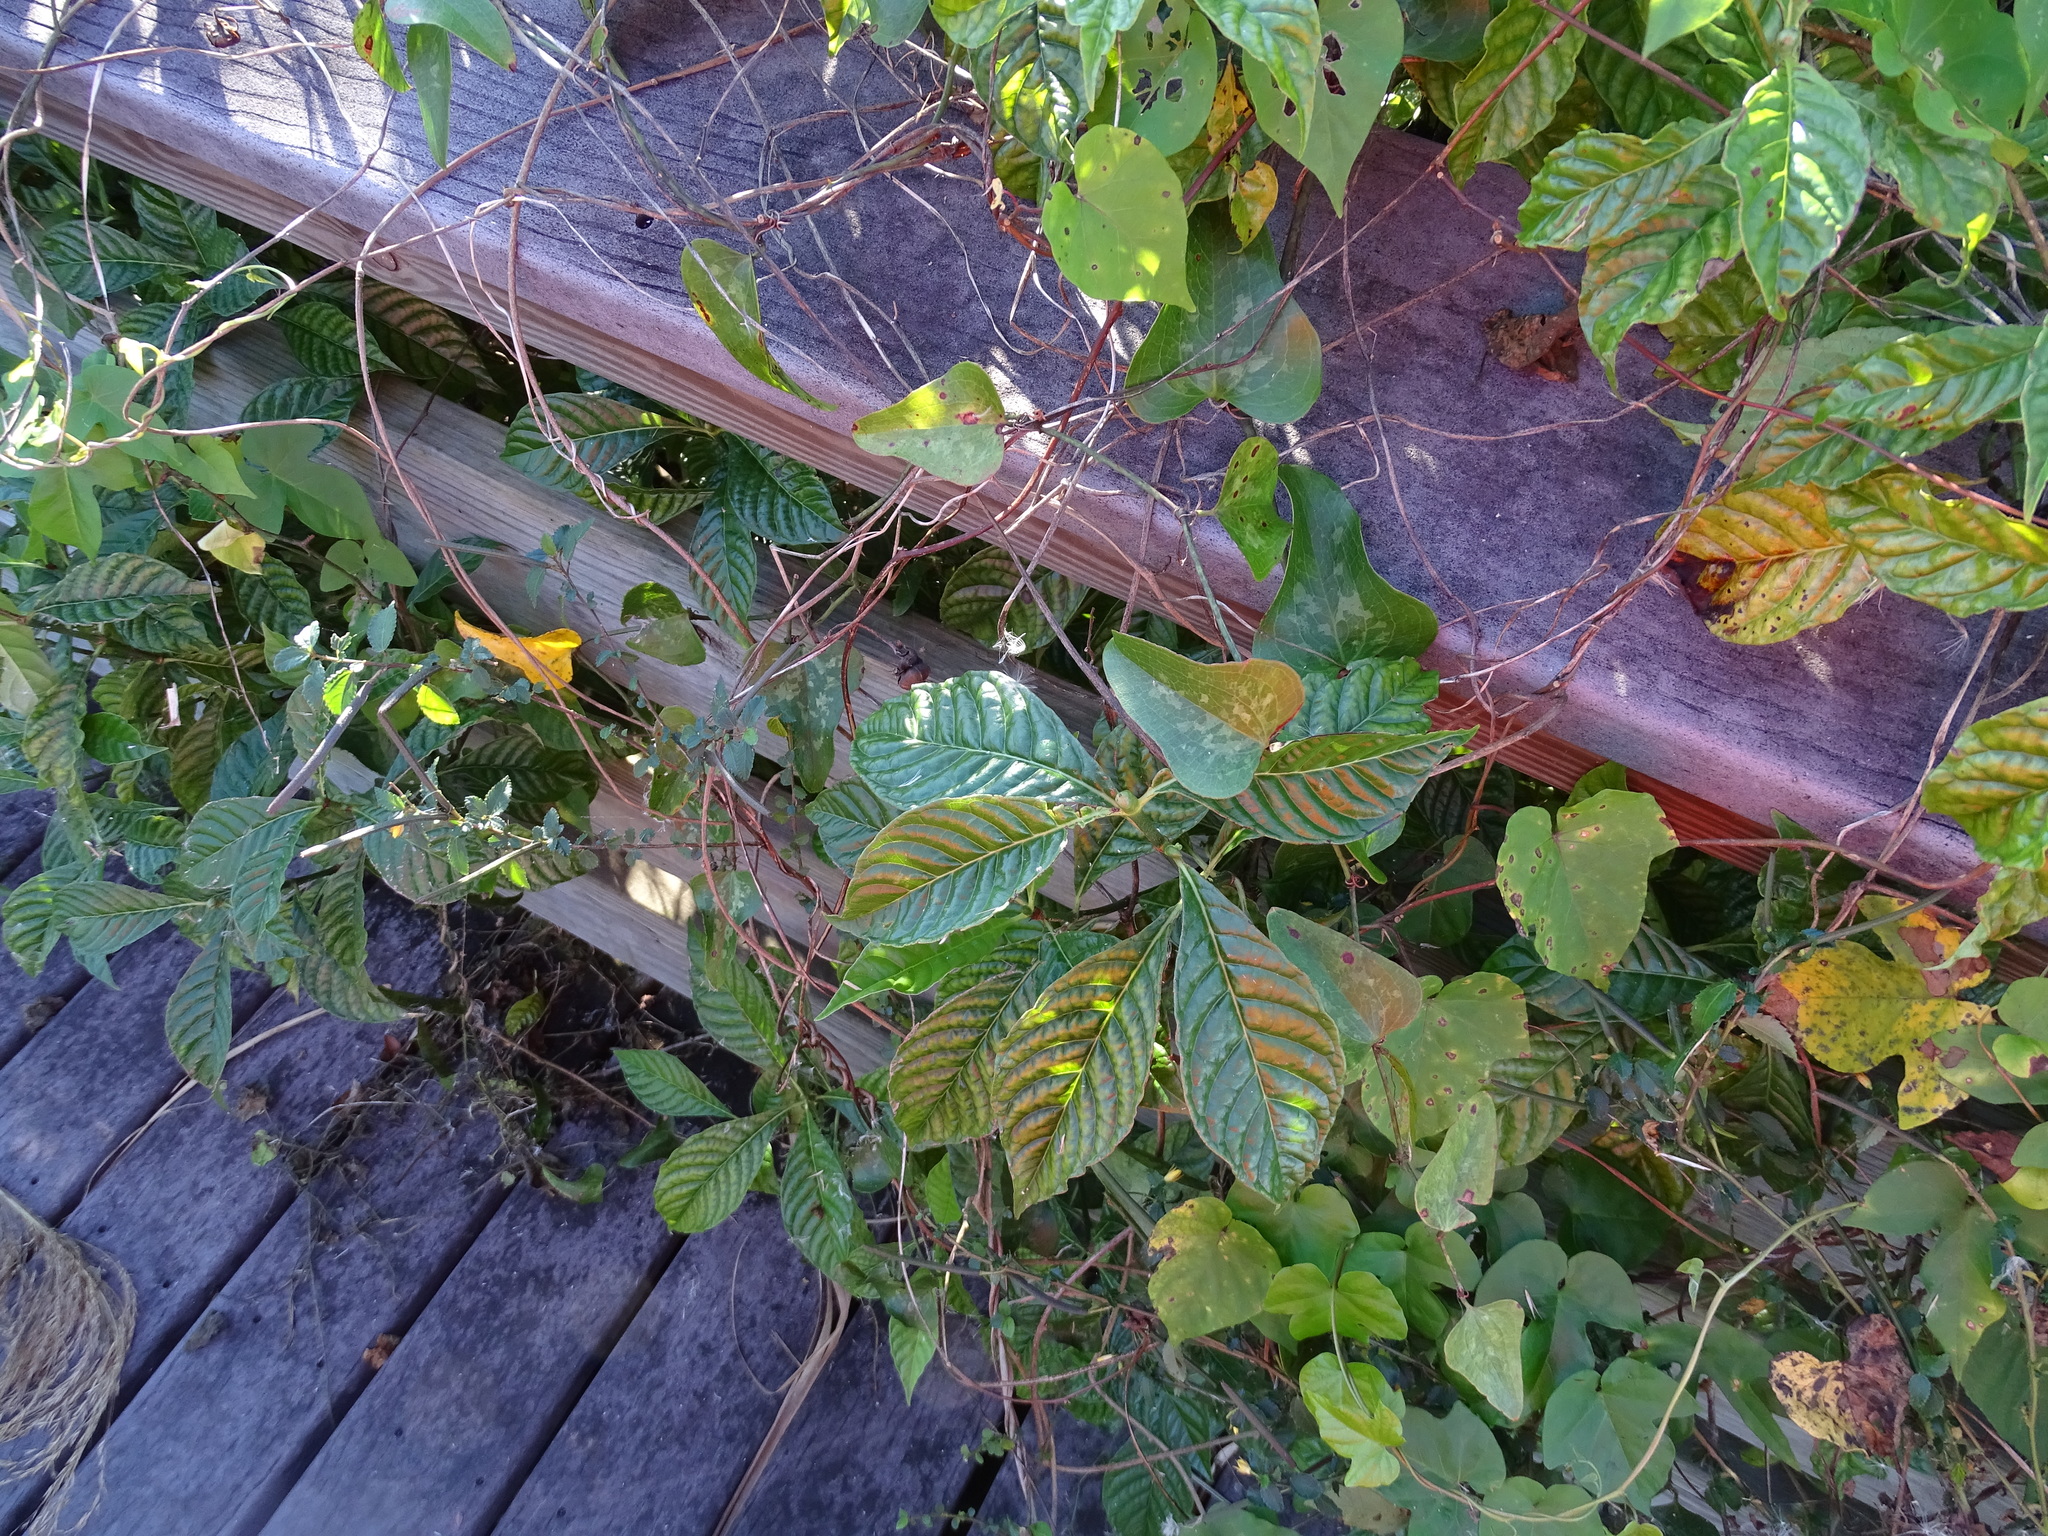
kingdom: Plantae
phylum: Tracheophyta
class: Magnoliopsida
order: Gentianales
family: Rubiaceae
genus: Psychotria
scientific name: Psychotria nervosa
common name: Bastard cankerberry
